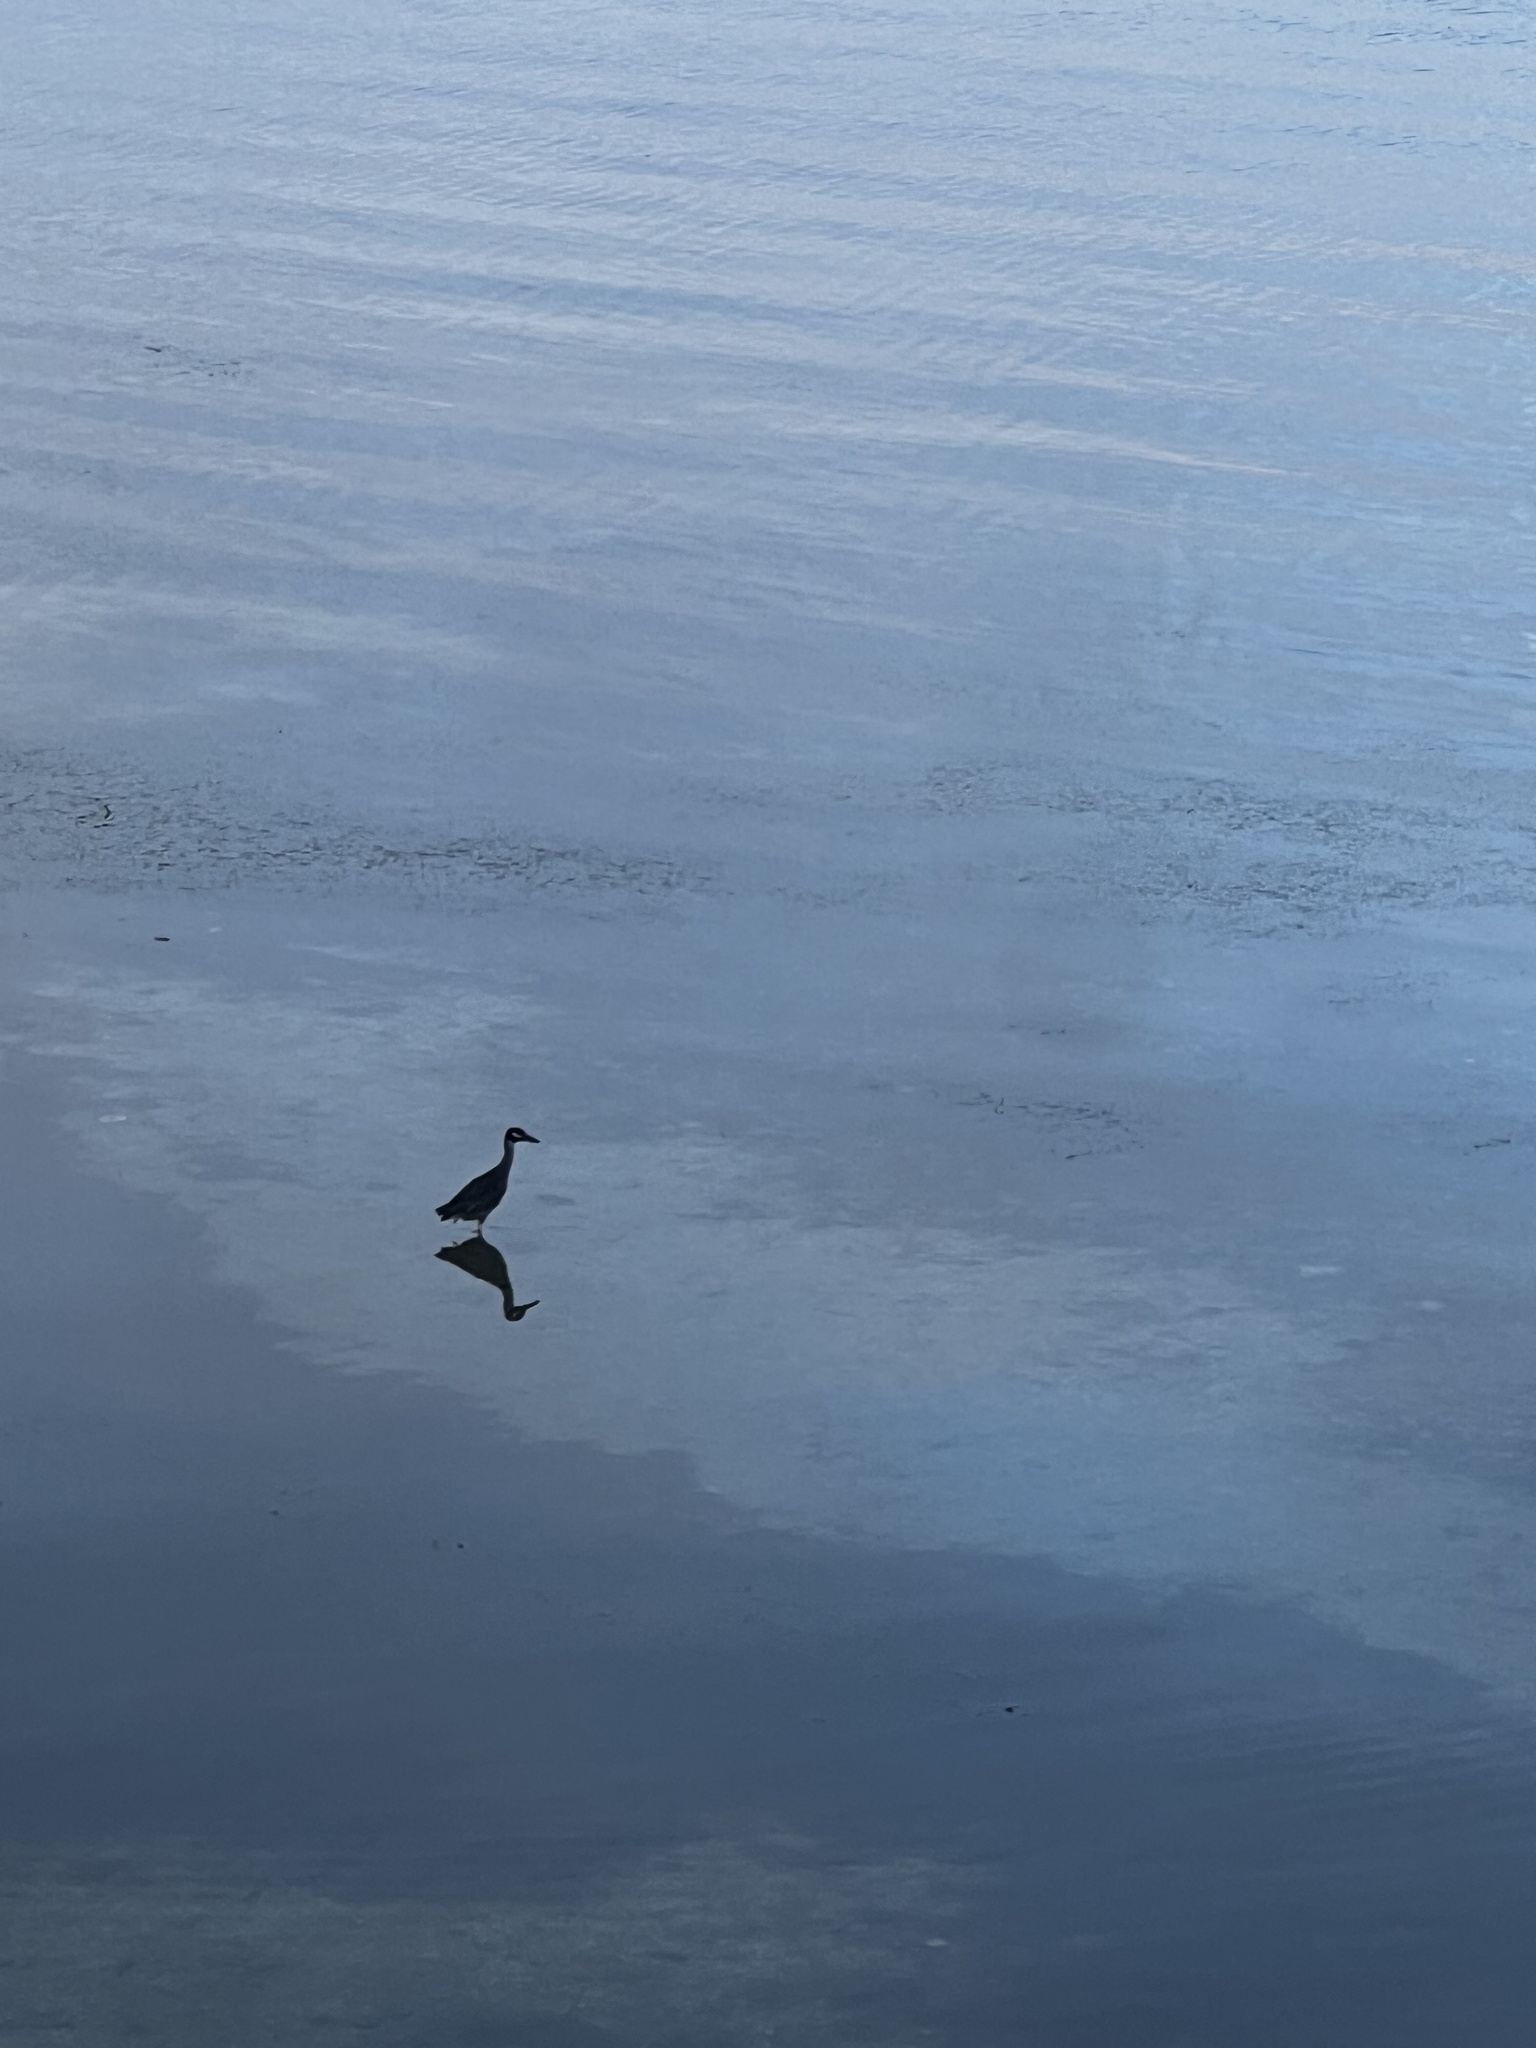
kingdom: Animalia
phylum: Chordata
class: Aves
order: Pelecaniformes
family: Ardeidae
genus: Nyctanassa
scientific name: Nyctanassa violacea
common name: Yellow-crowned night heron
